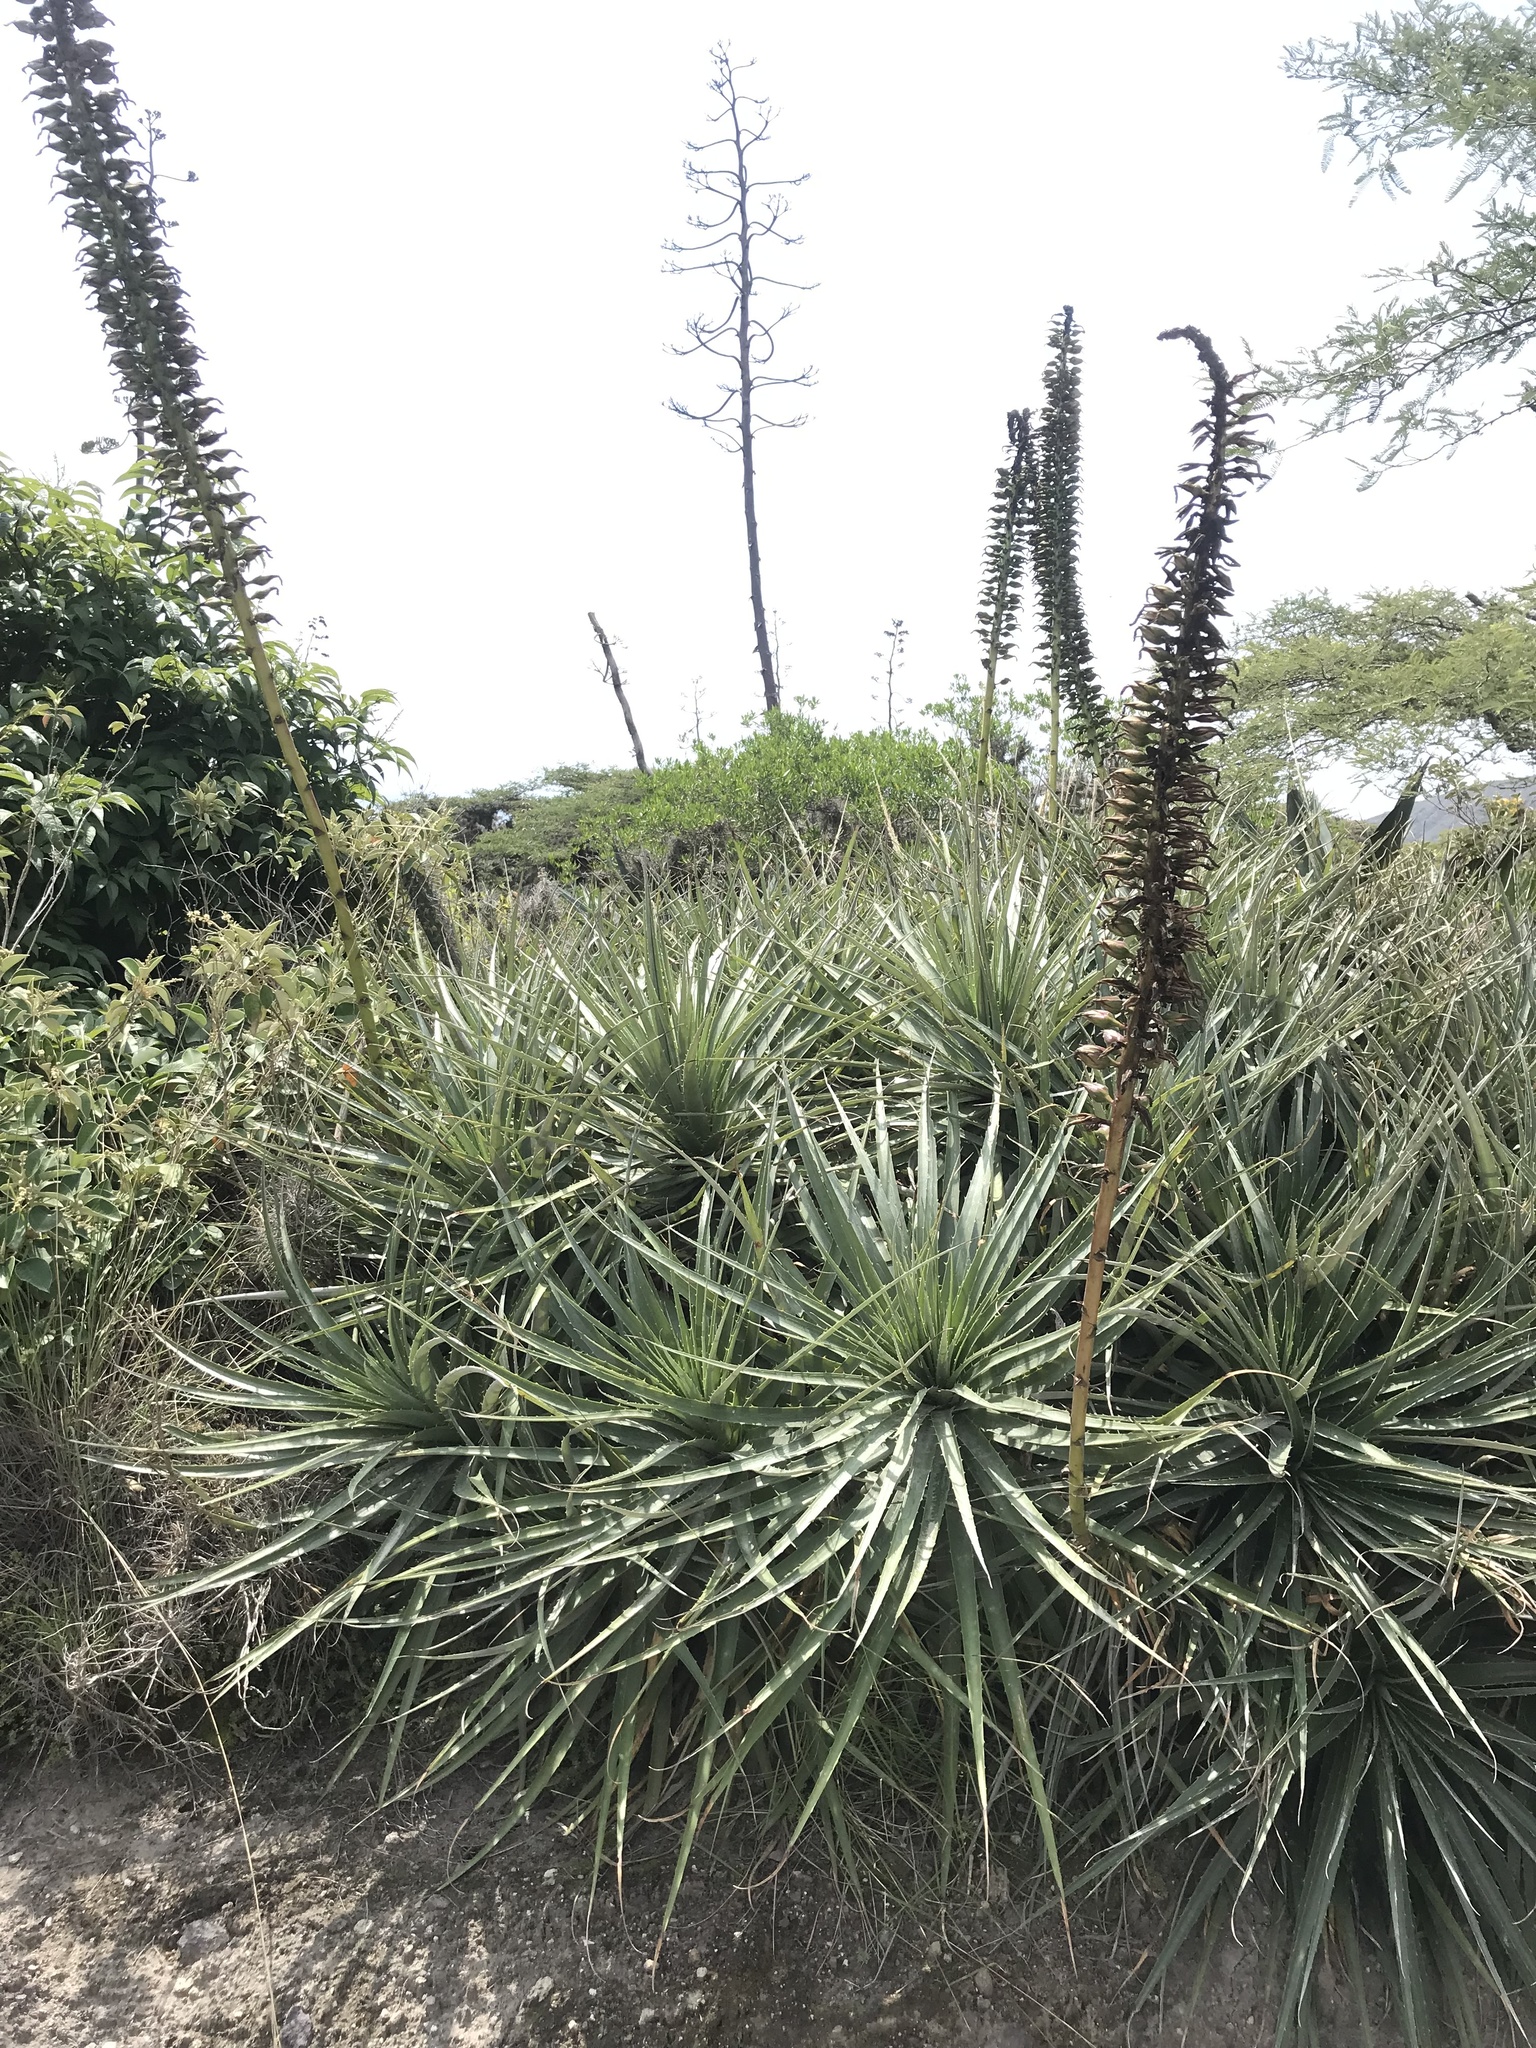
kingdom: Plantae
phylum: Tracheophyta
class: Liliopsida
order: Poales
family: Bromeliaceae
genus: Puya
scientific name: Puya aequatorialis
